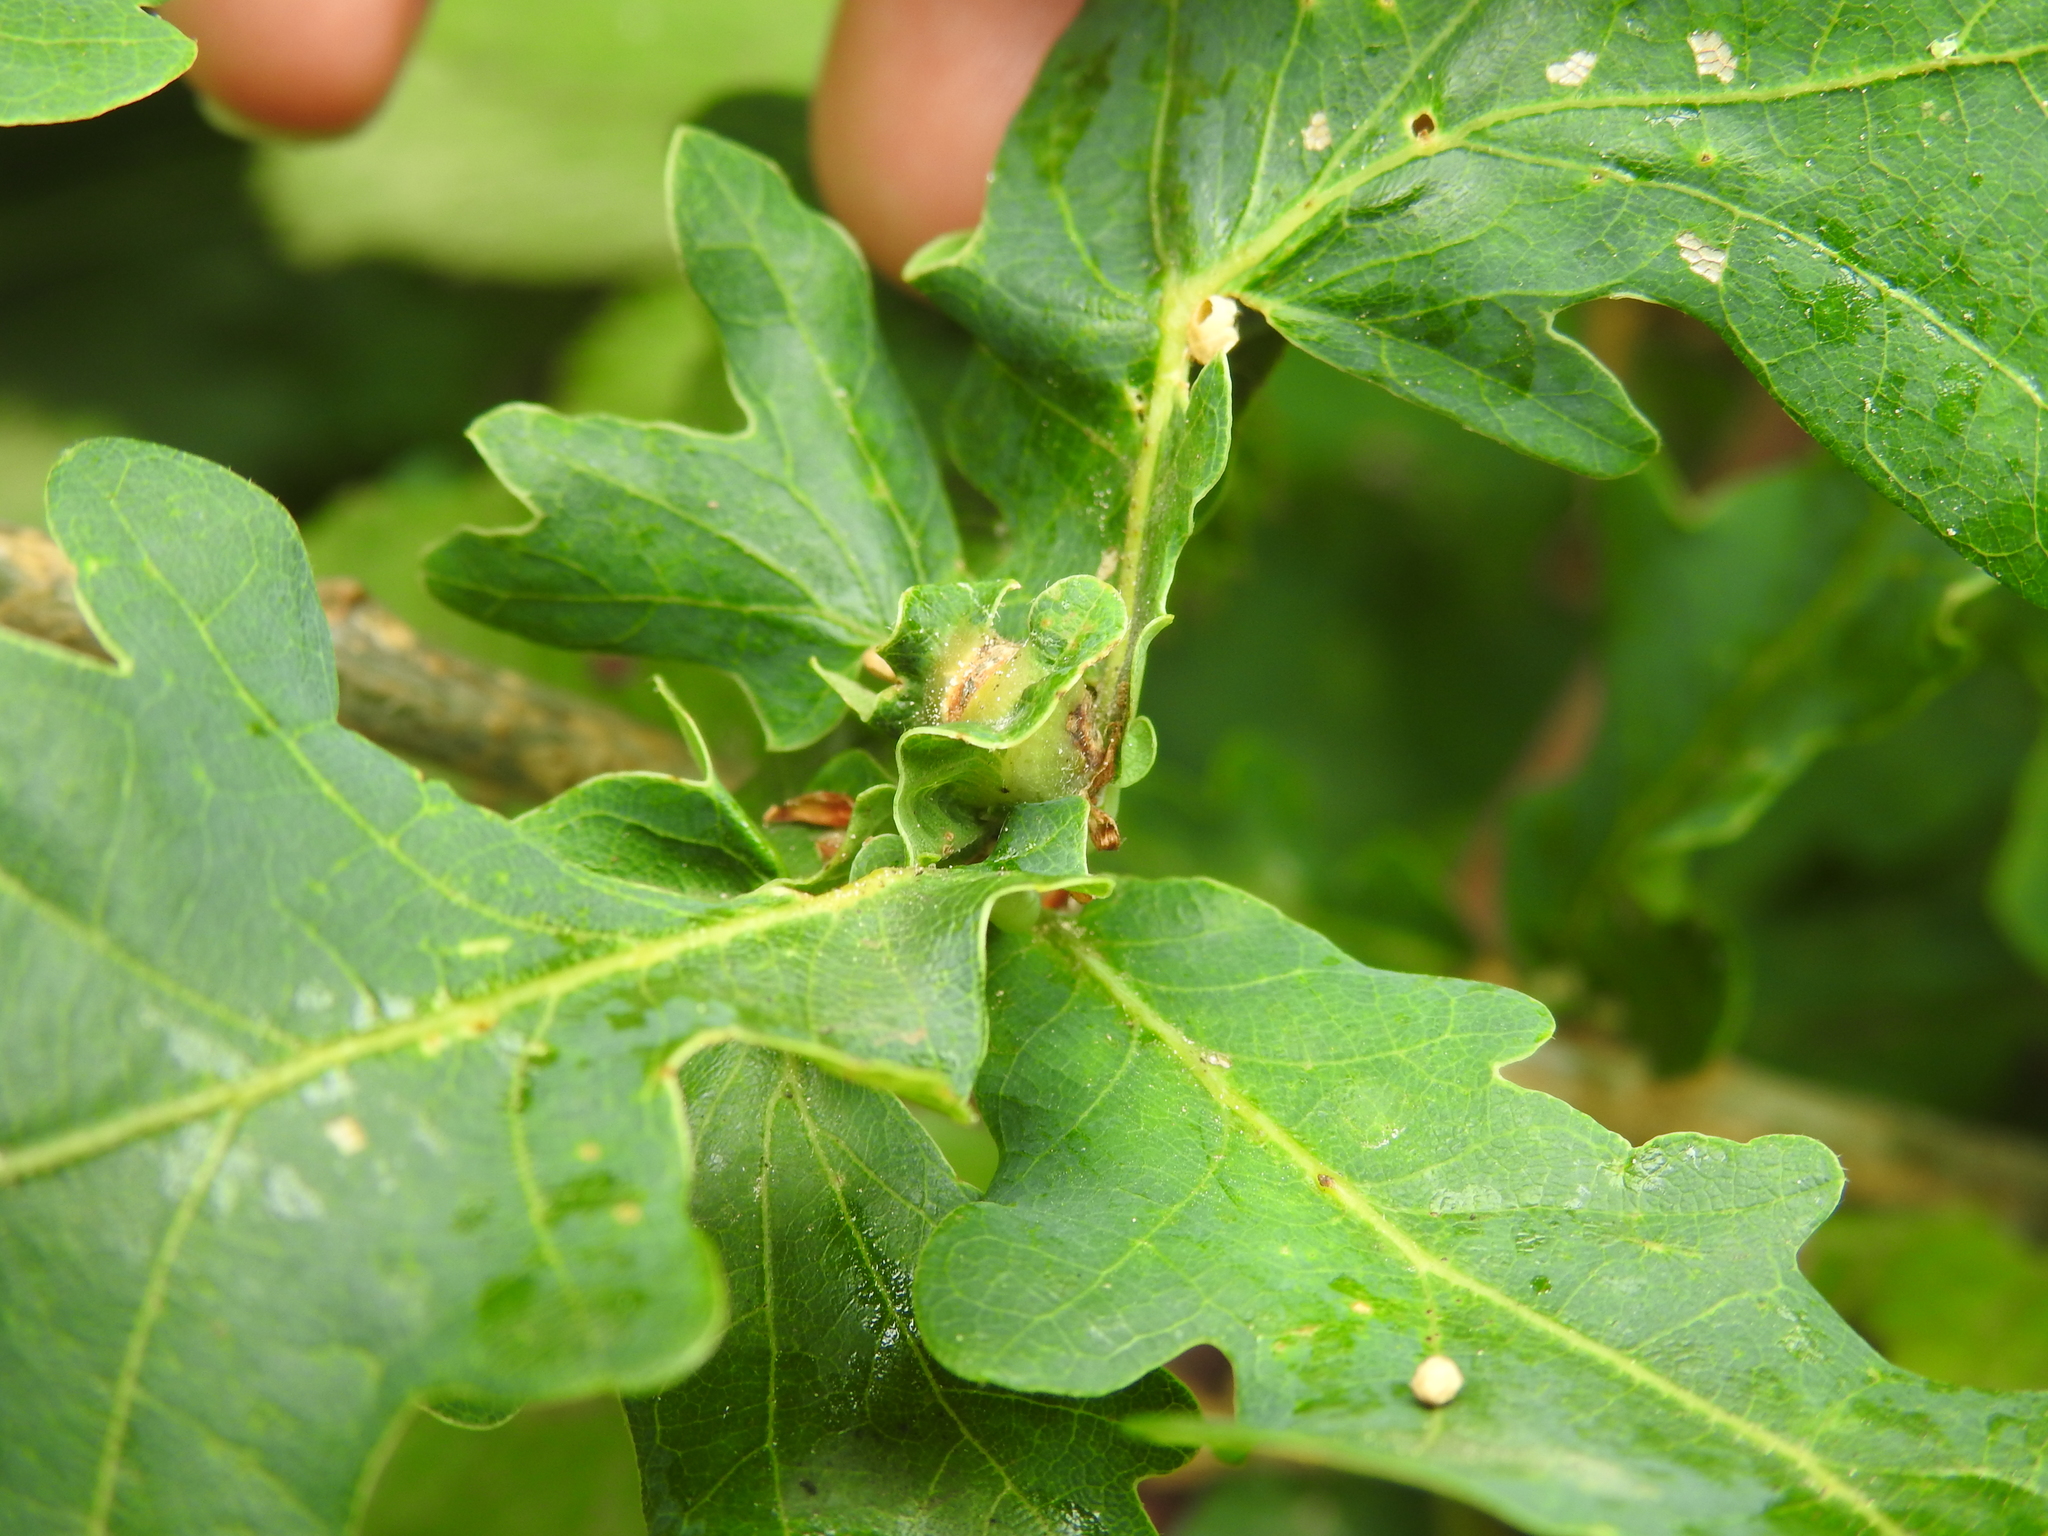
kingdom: Animalia
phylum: Arthropoda
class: Insecta
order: Hymenoptera
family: Cynipidae
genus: Andricus
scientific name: Andricus curvator
